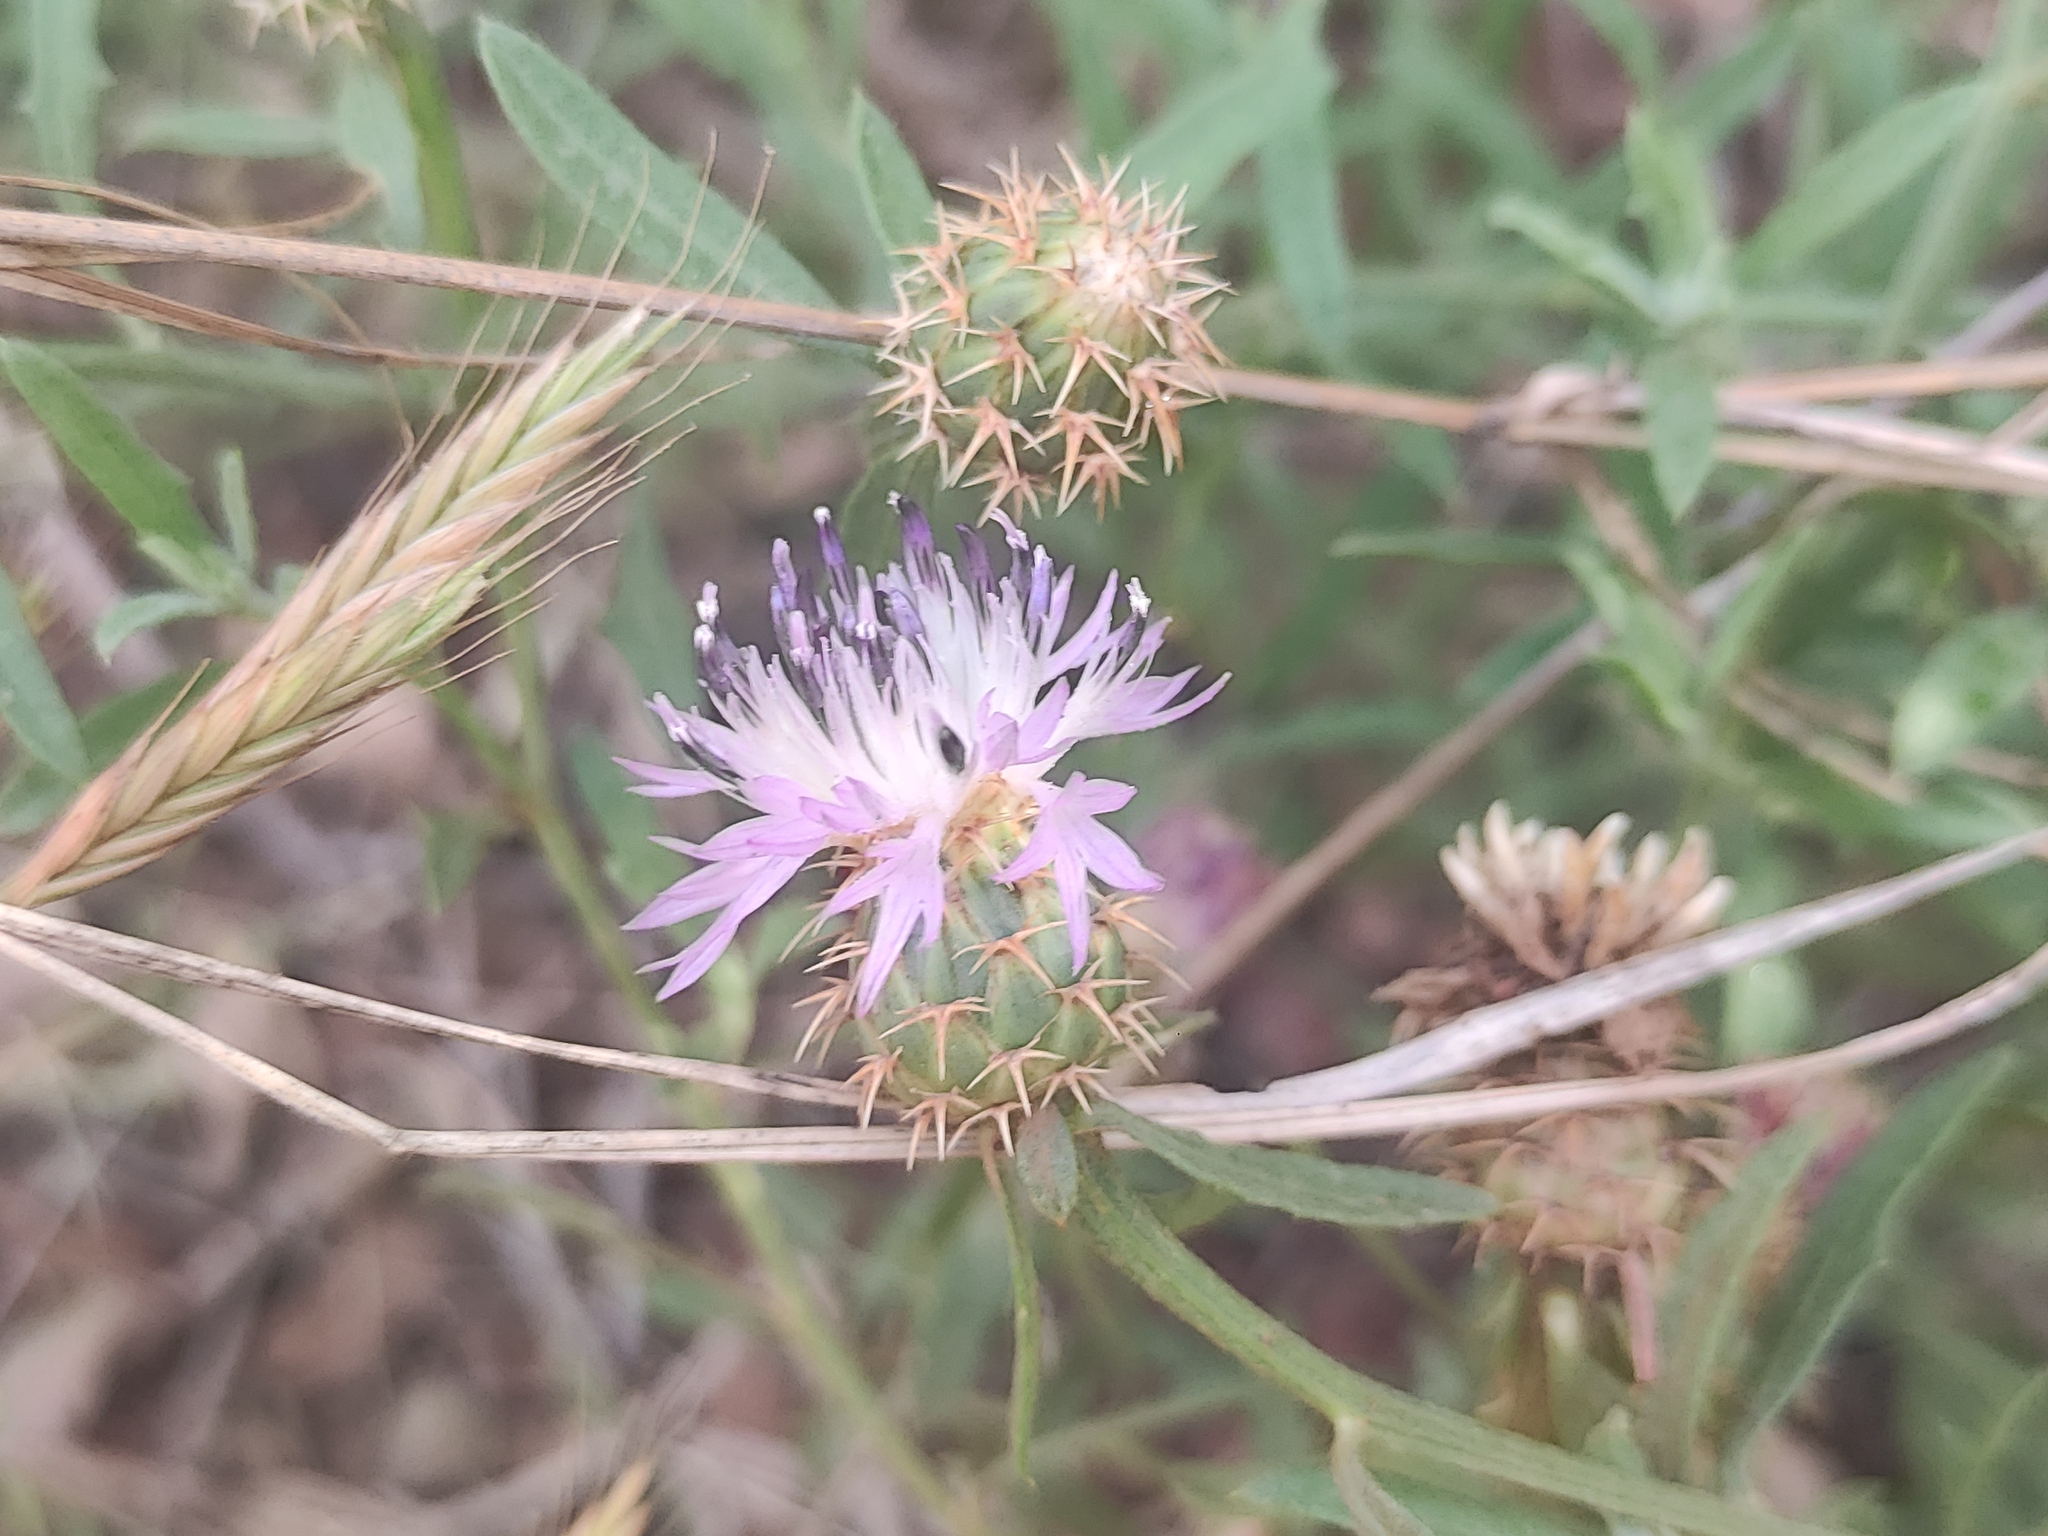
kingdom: Plantae
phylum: Tracheophyta
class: Magnoliopsida
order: Asterales
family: Asteraceae
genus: Centaurea
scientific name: Centaurea aspera
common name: Rough star-thistle
